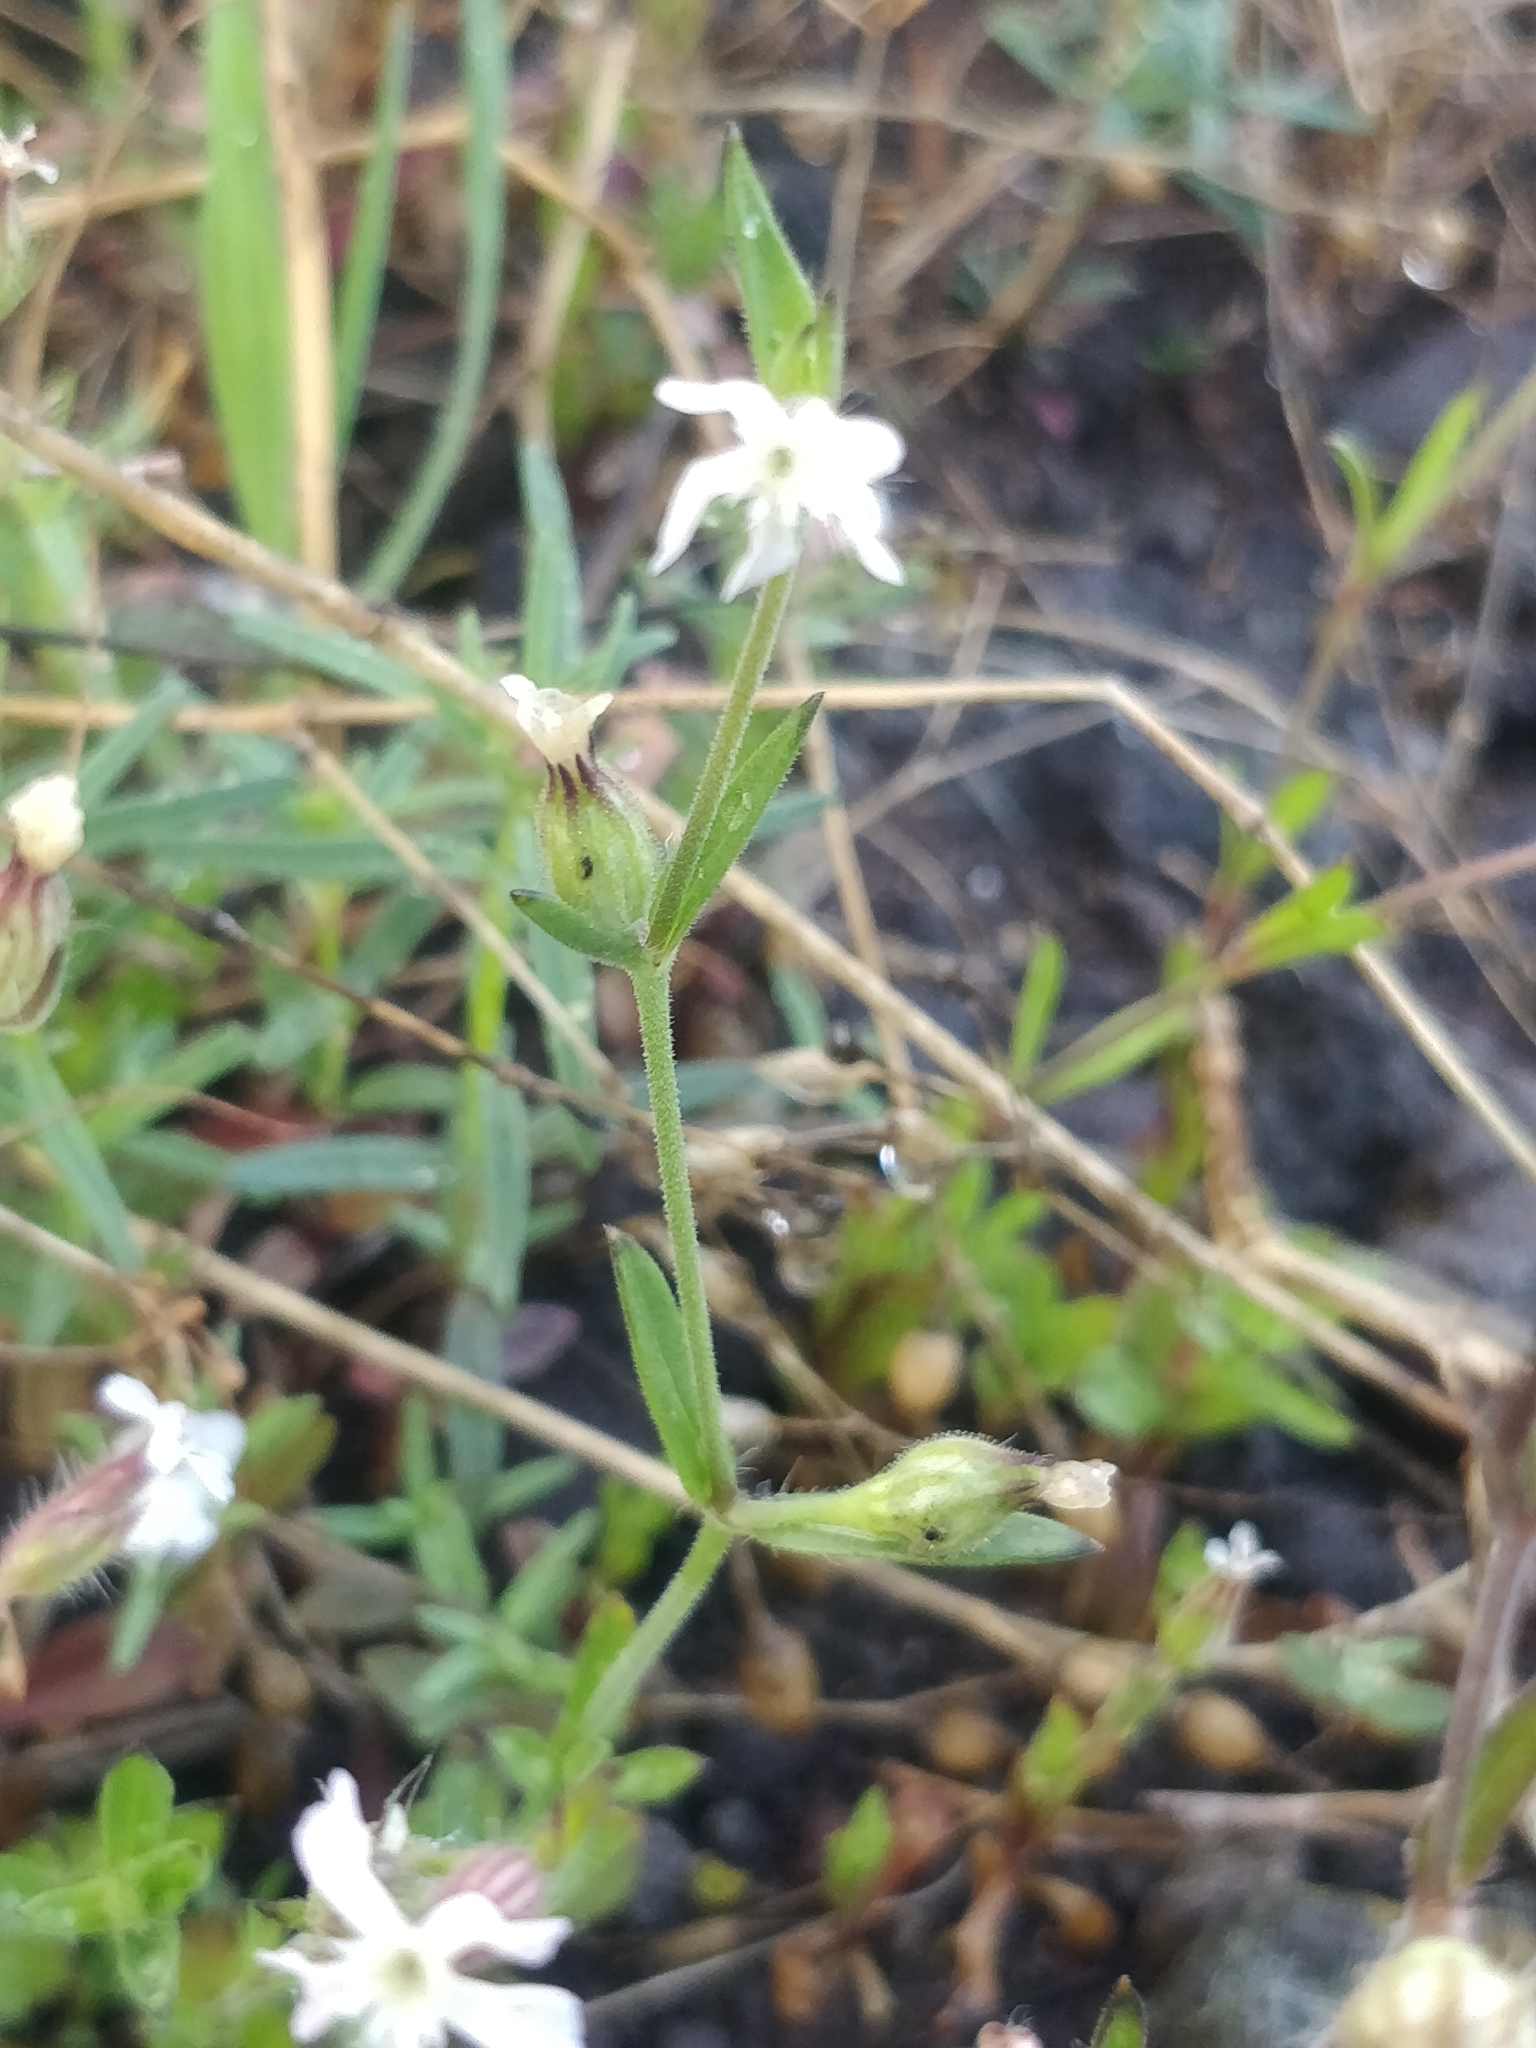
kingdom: Plantae
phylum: Tracheophyta
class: Magnoliopsida
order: Caryophyllales
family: Caryophyllaceae
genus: Silene
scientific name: Silene gallica
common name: Small-flowered catchfly
